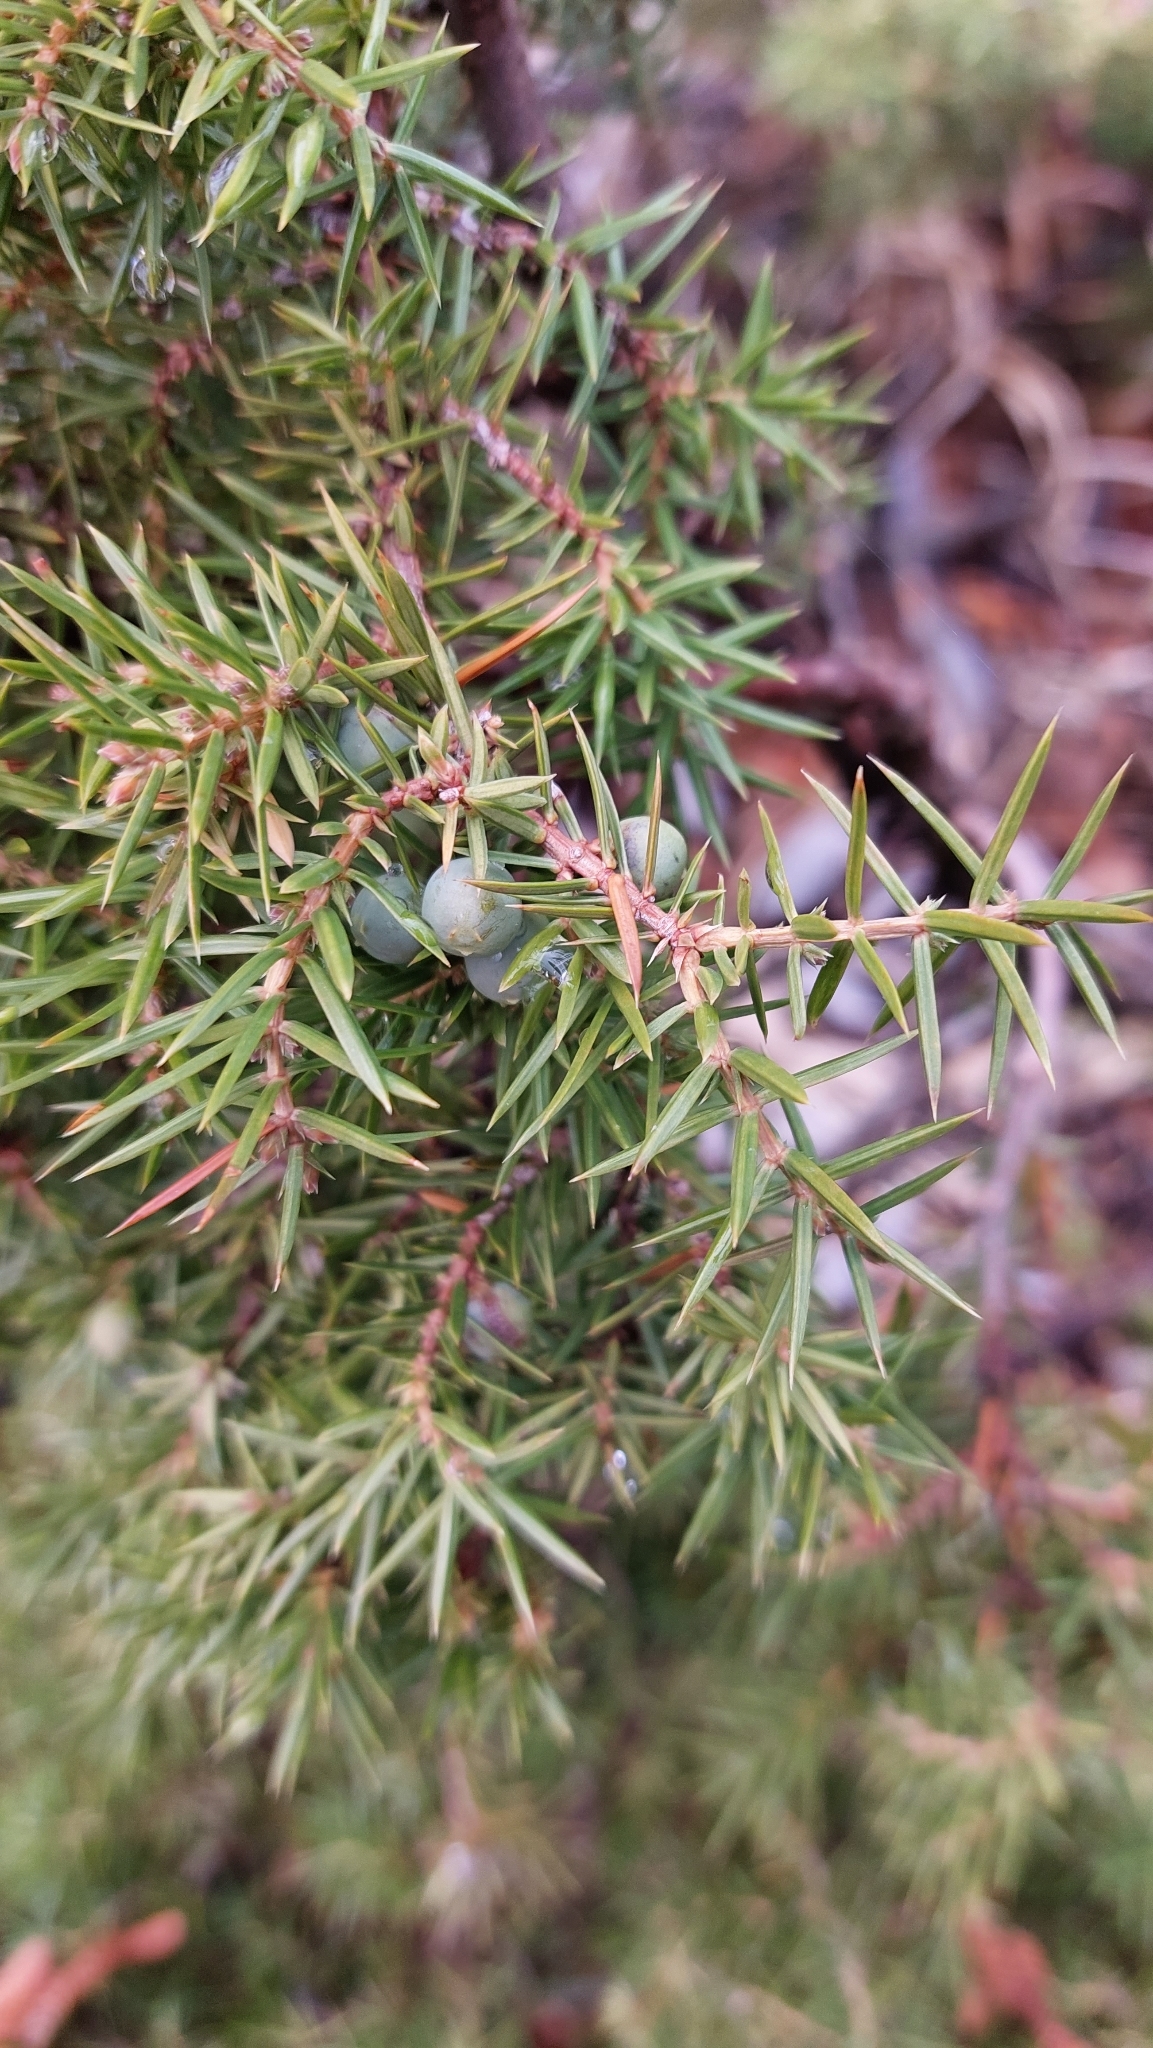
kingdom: Plantae
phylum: Tracheophyta
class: Pinopsida
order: Pinales
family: Cupressaceae
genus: Juniperus
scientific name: Juniperus communis
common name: Common juniper
